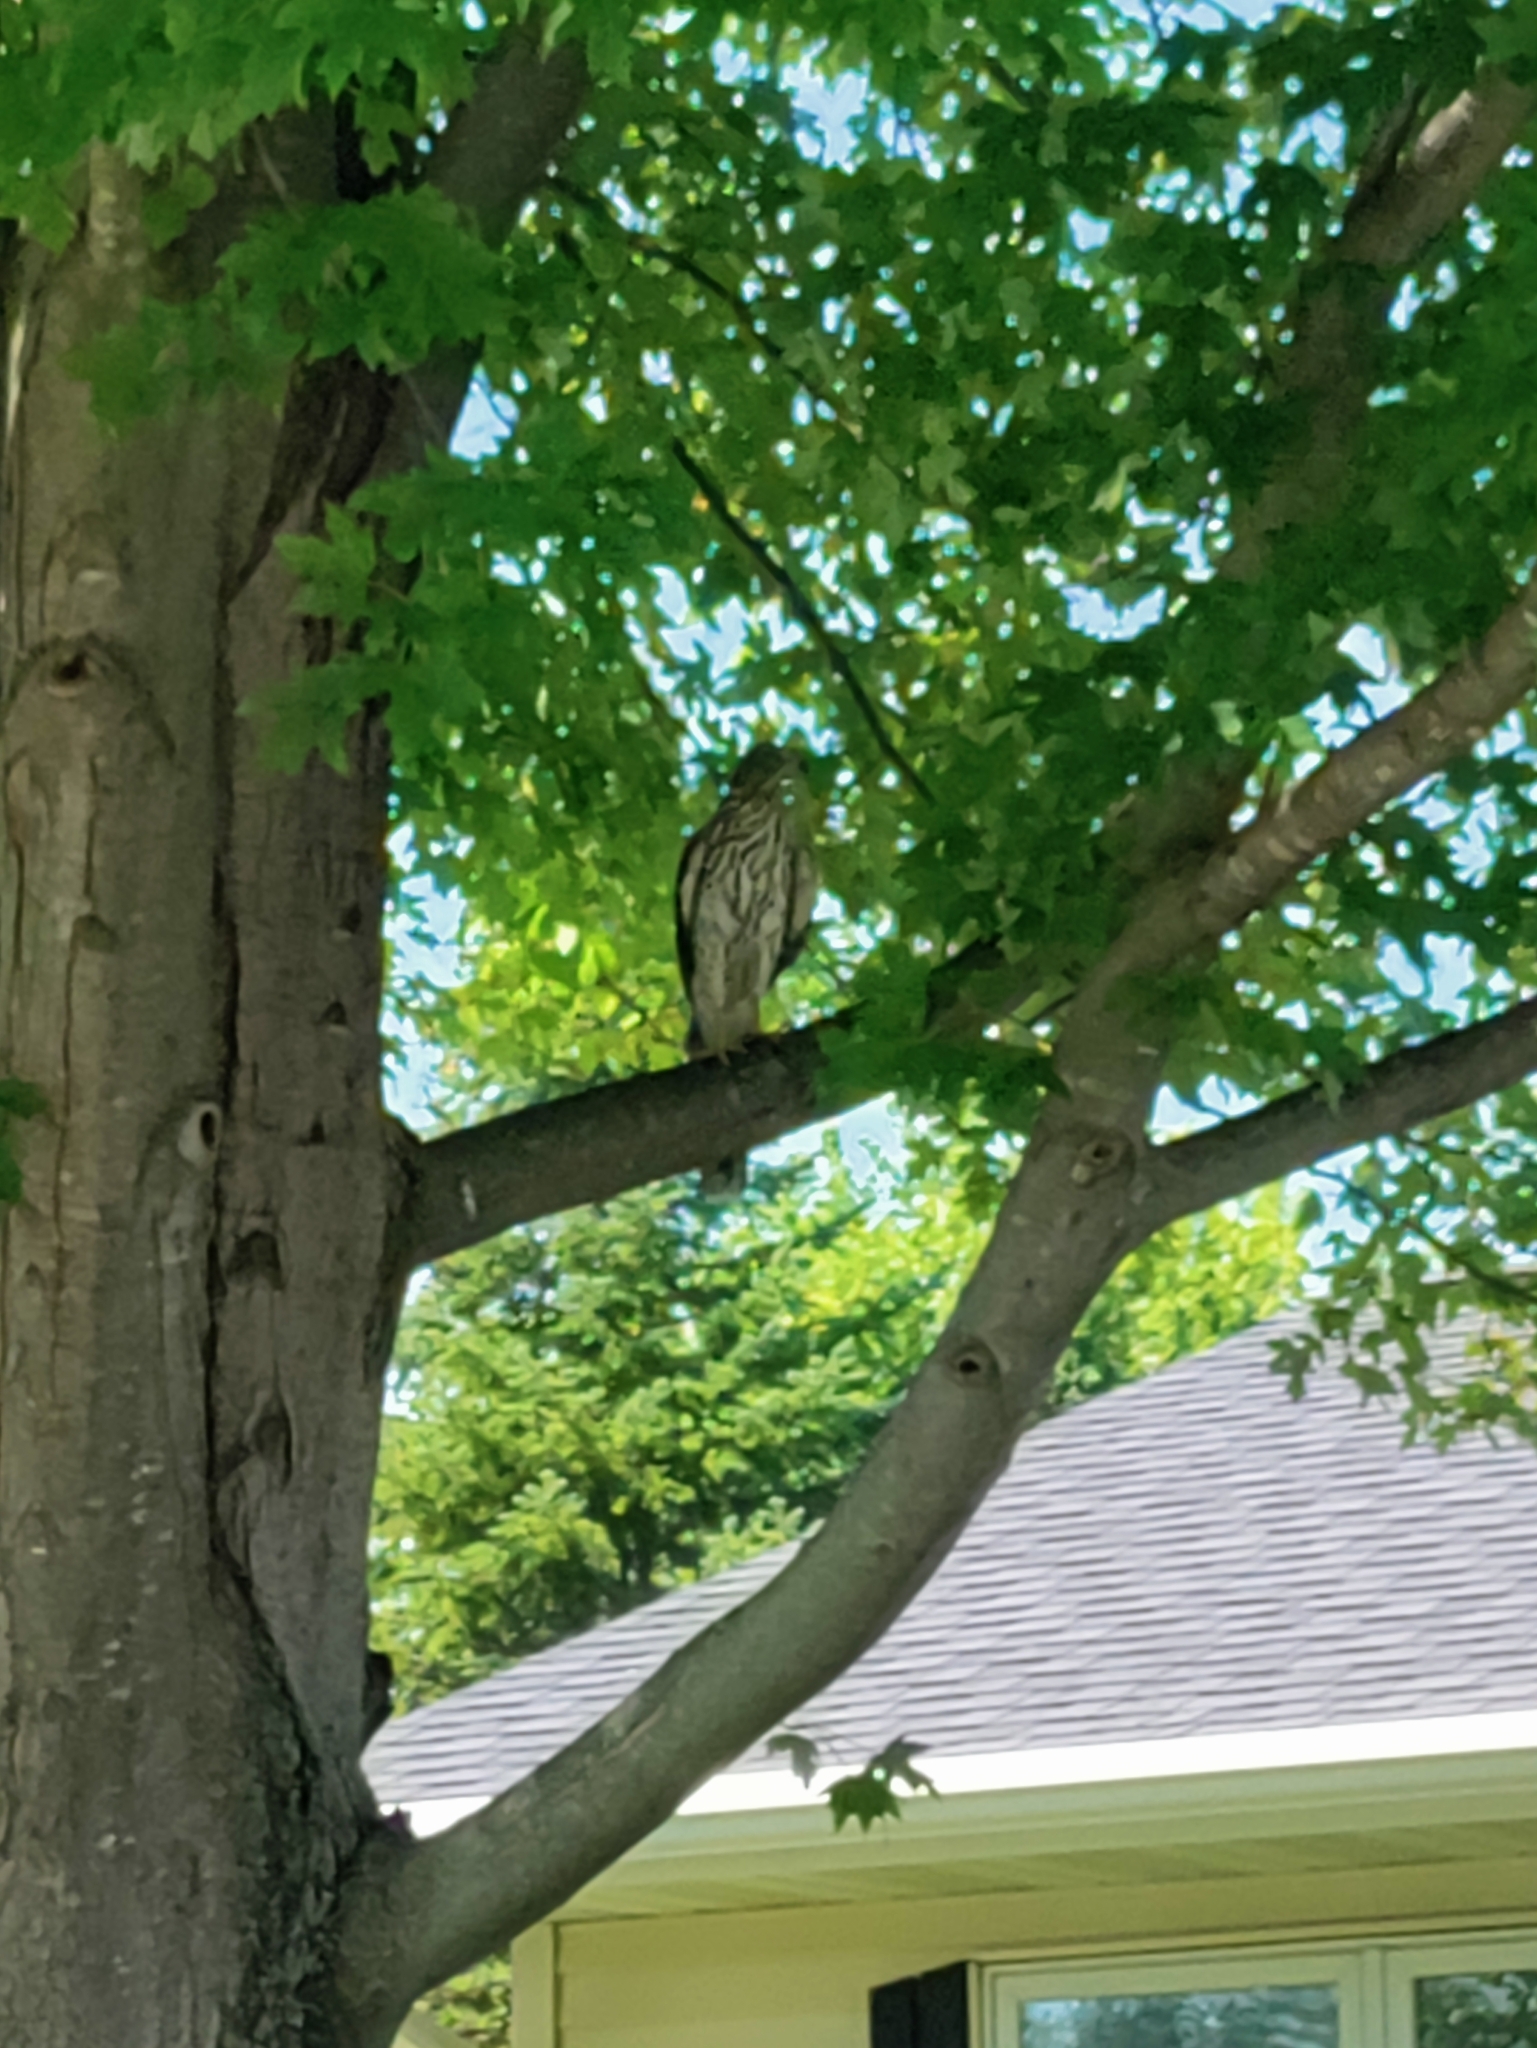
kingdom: Animalia
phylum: Chordata
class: Aves
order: Accipitriformes
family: Accipitridae
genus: Accipiter
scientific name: Accipiter cooperii
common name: Cooper's hawk
